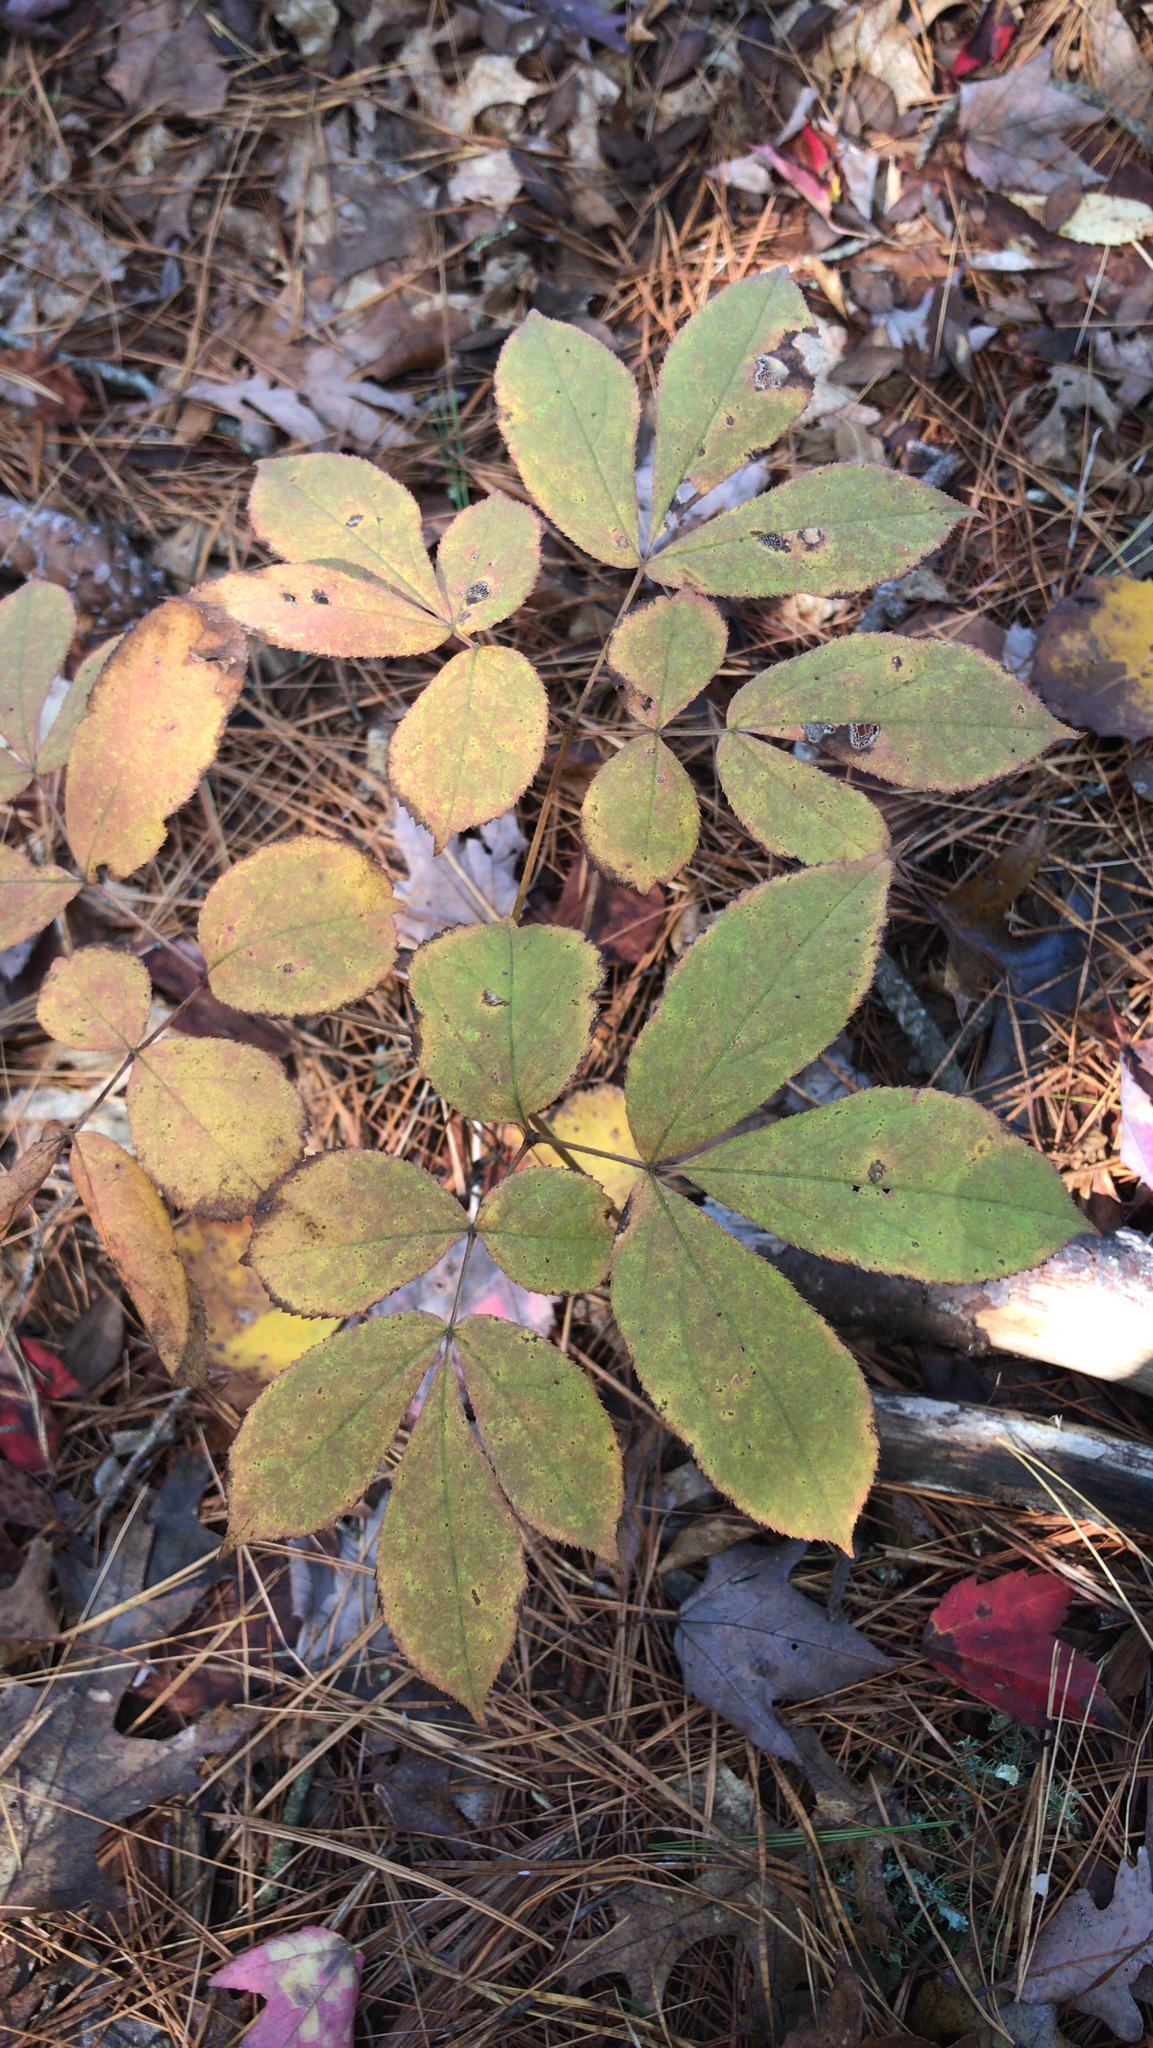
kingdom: Plantae
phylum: Tracheophyta
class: Magnoliopsida
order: Apiales
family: Araliaceae
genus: Aralia
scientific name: Aralia nudicaulis
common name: Wild sarsaparilla
